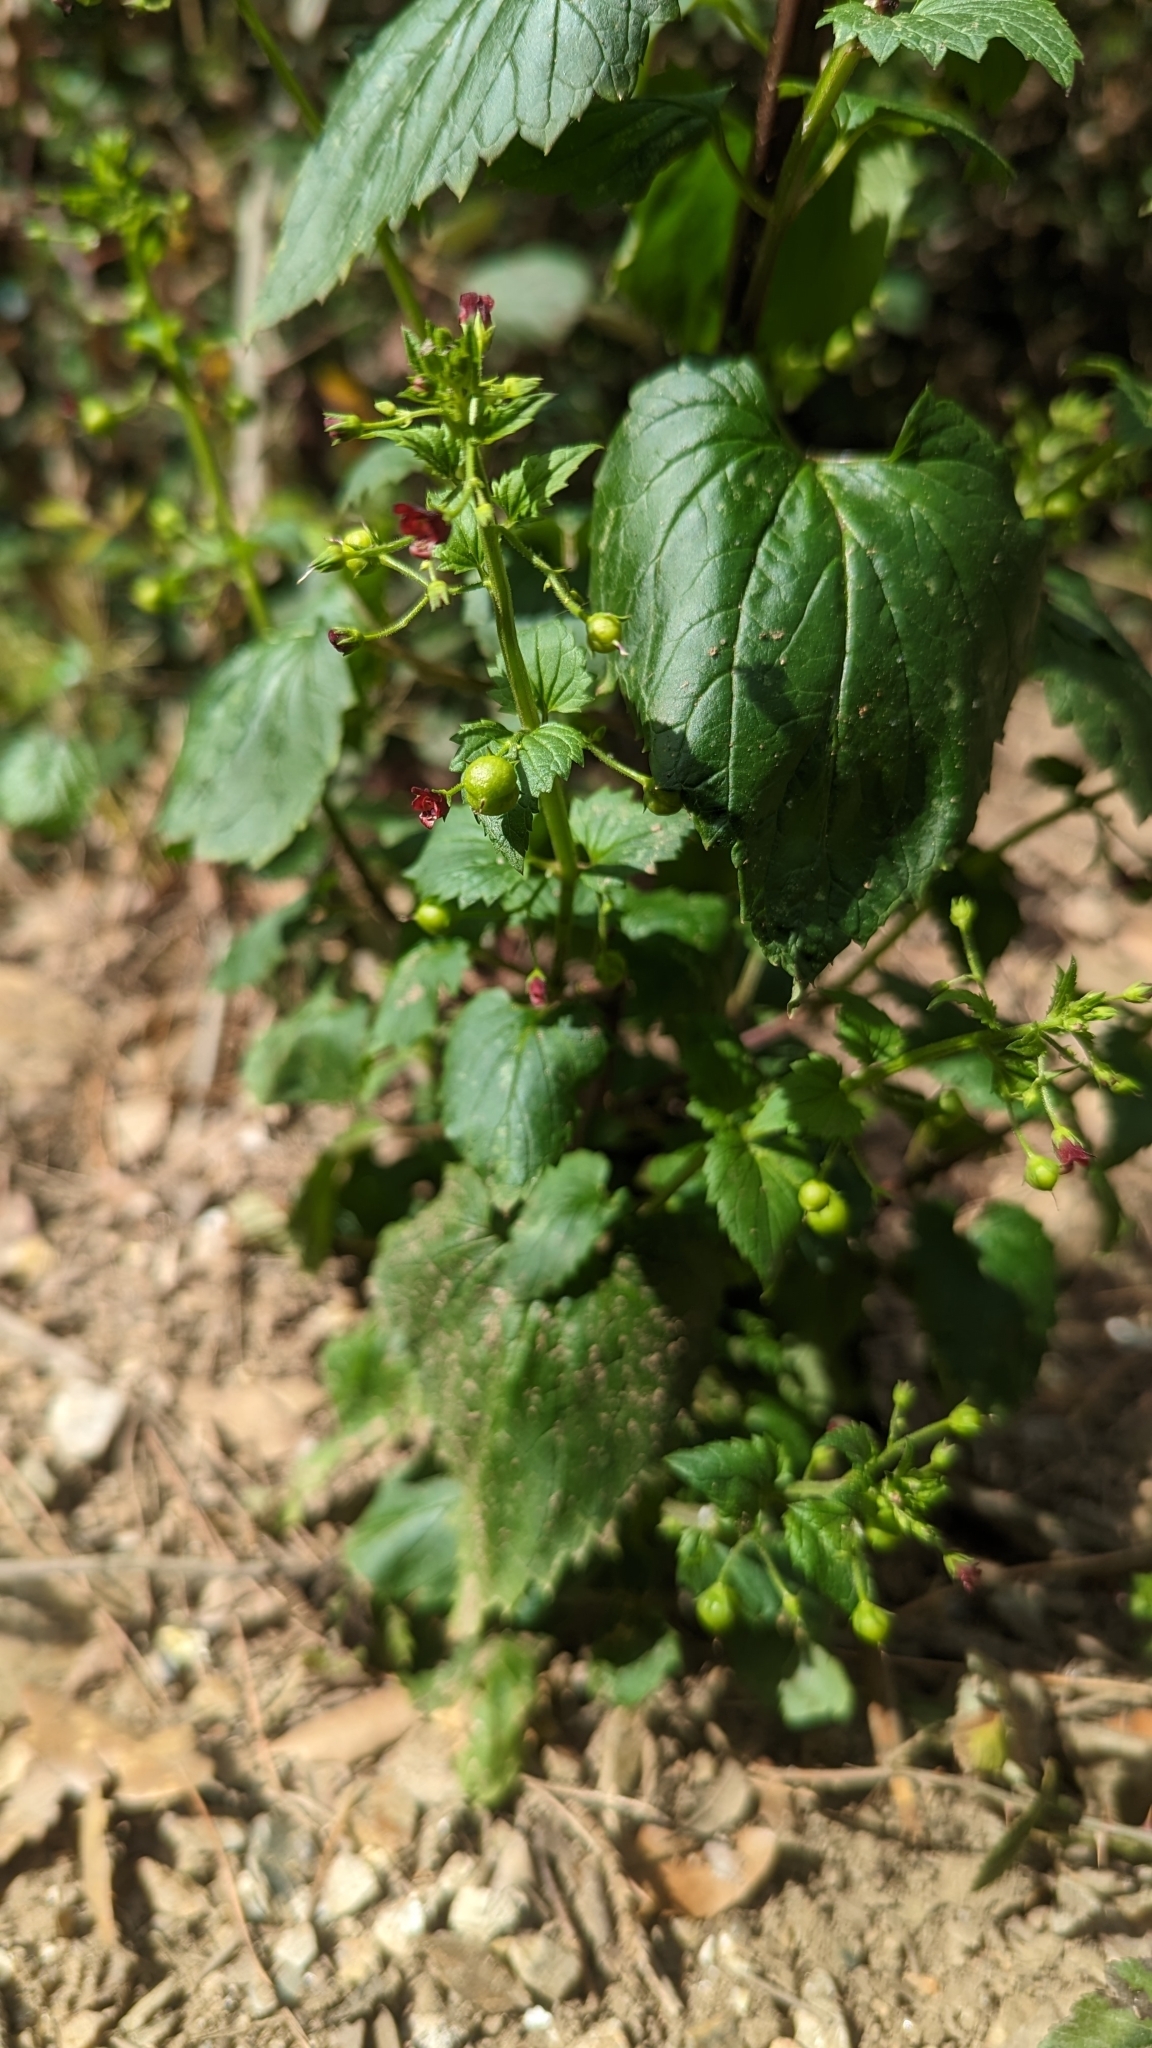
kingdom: Plantae
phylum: Tracheophyta
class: Magnoliopsida
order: Lamiales
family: Scrophulariaceae
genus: Scrophularia
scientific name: Scrophularia peregrina
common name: Mediterranean figwort
